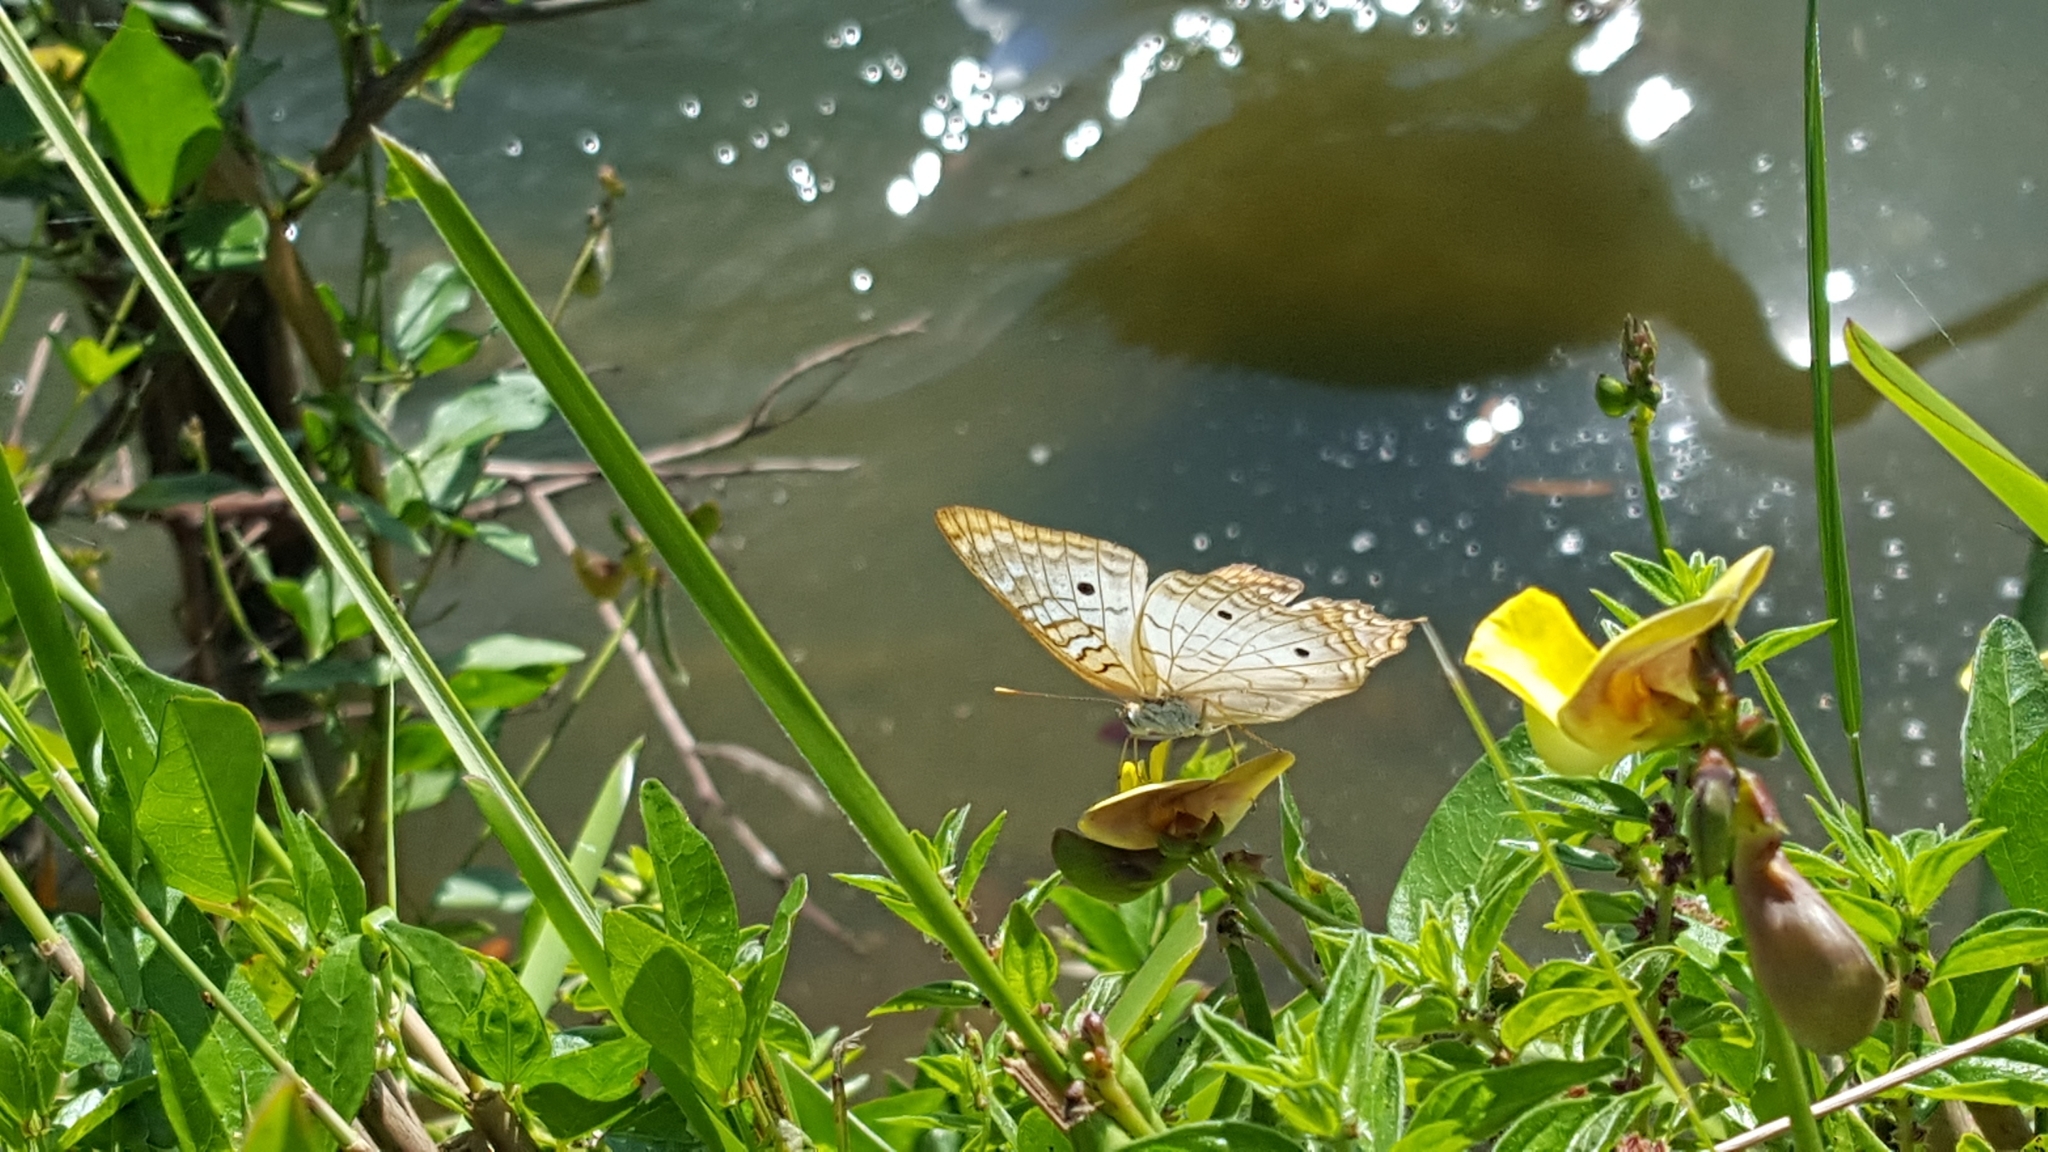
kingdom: Animalia
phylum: Arthropoda
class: Insecta
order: Lepidoptera
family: Nymphalidae
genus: Anartia
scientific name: Anartia jatrophae
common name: White peacock
